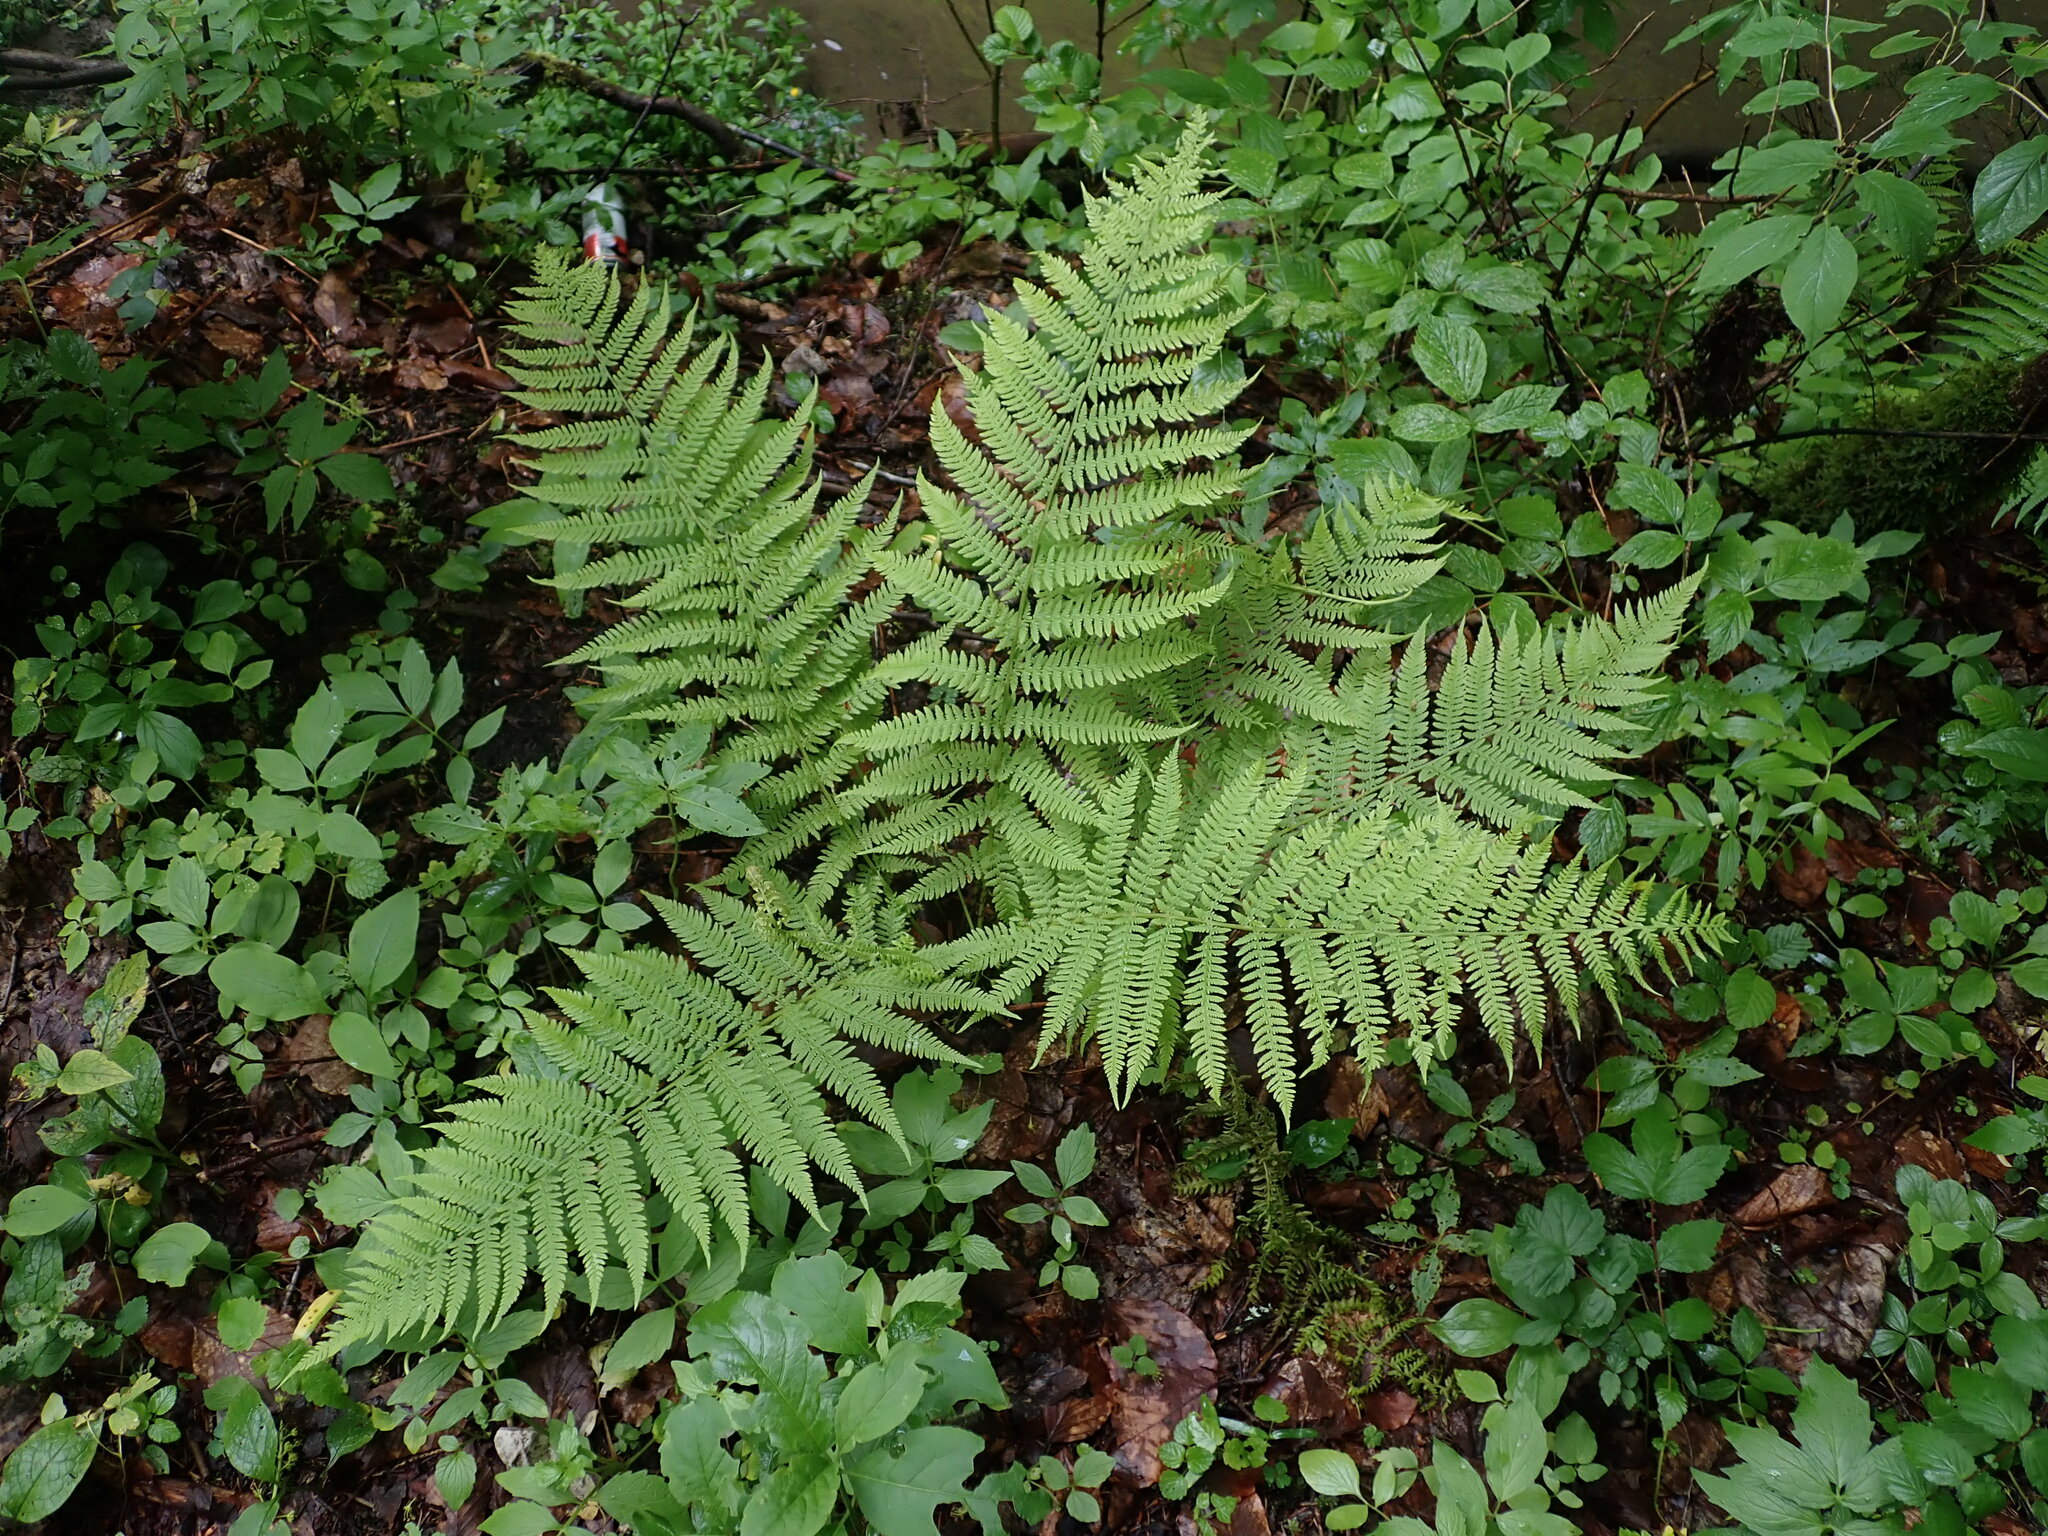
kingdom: Plantae
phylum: Tracheophyta
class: Polypodiopsida
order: Polypodiales
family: Athyriaceae
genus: Athyrium
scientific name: Athyrium filix-femina
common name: Lady fern
